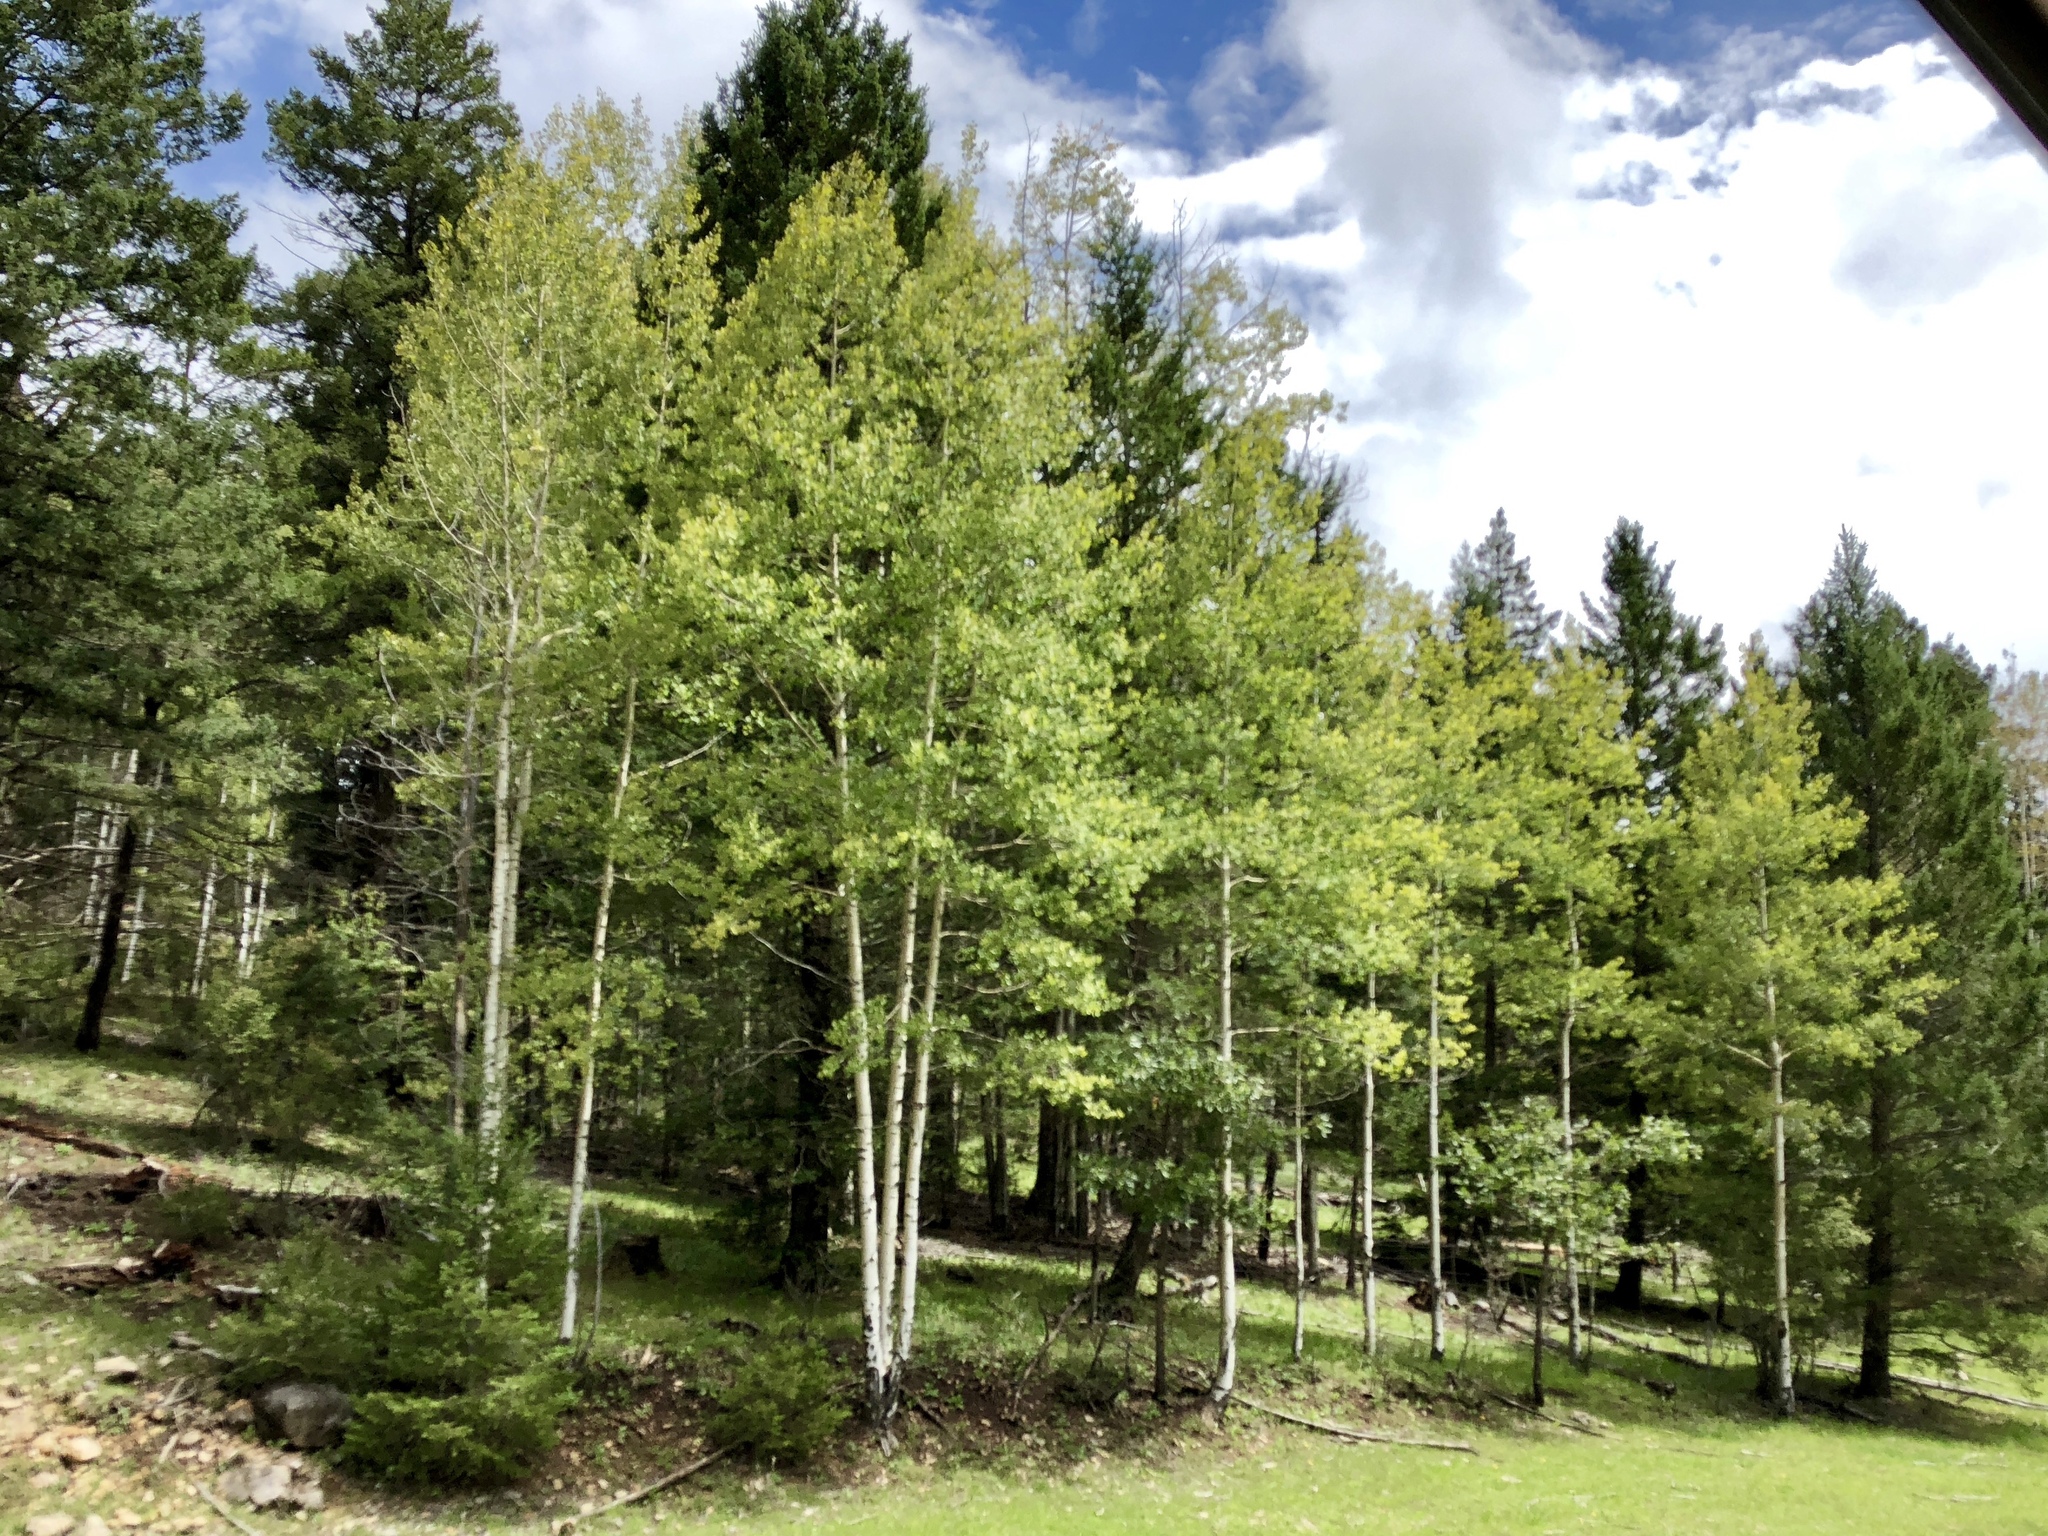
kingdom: Plantae
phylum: Tracheophyta
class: Magnoliopsida
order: Malpighiales
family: Salicaceae
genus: Populus
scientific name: Populus tremuloides
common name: Quaking aspen
